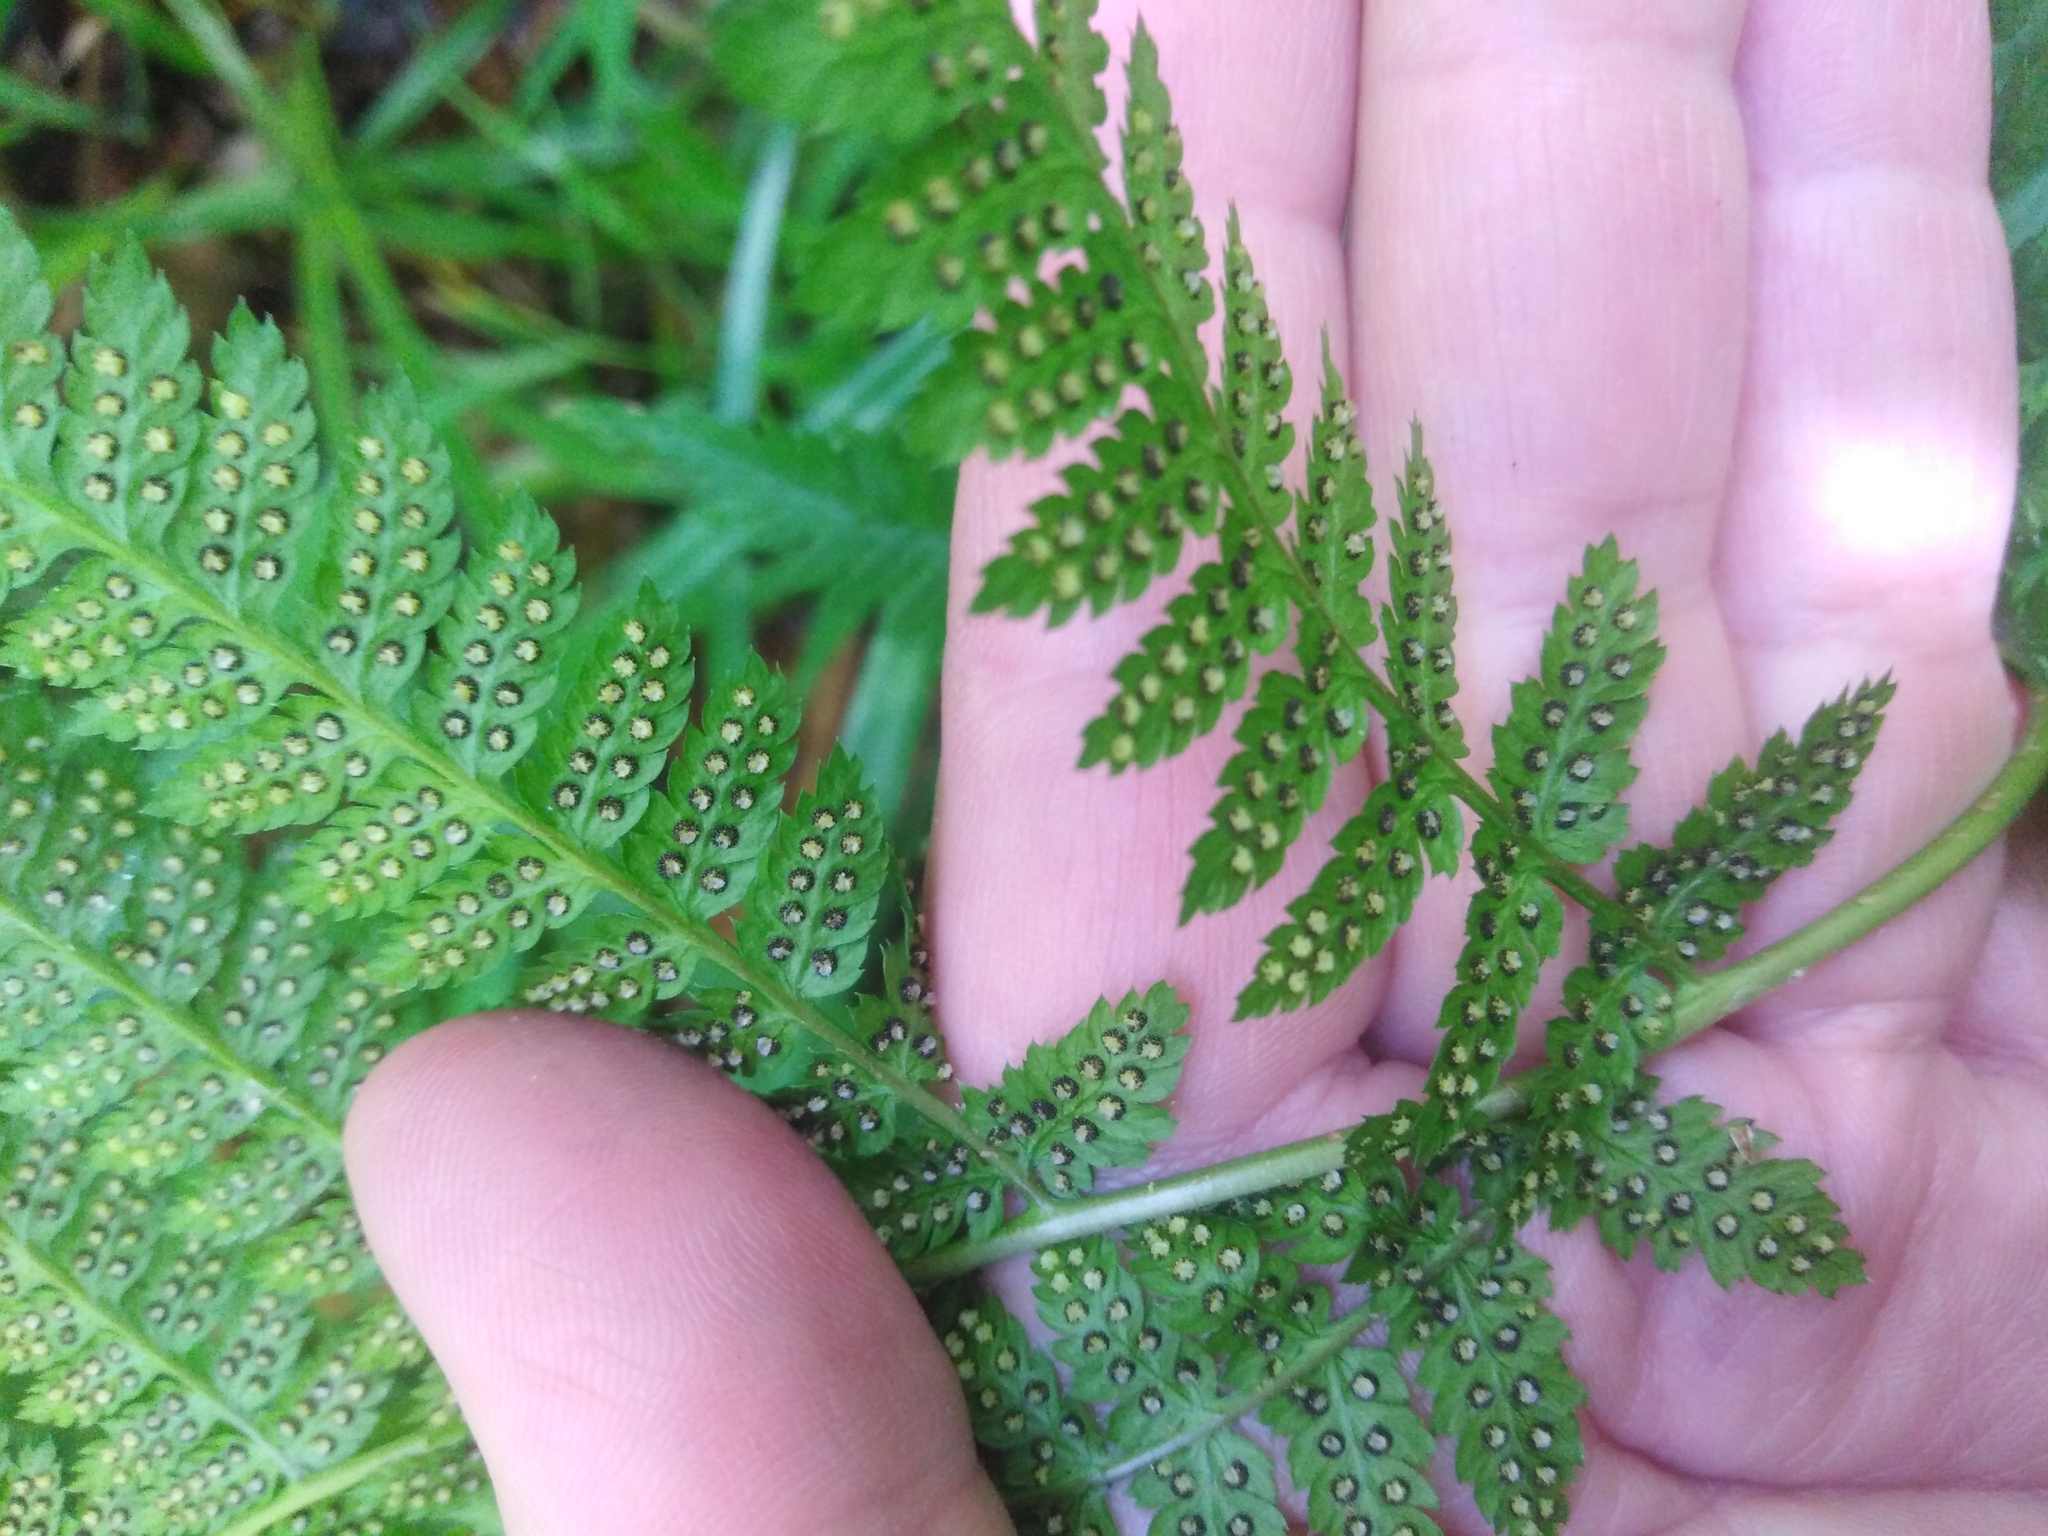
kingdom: Plantae
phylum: Tracheophyta
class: Polypodiopsida
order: Polypodiales
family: Dryopteridaceae
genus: Dryopteris
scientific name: Dryopteris carthusiana
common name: Narrow buckler-fern
